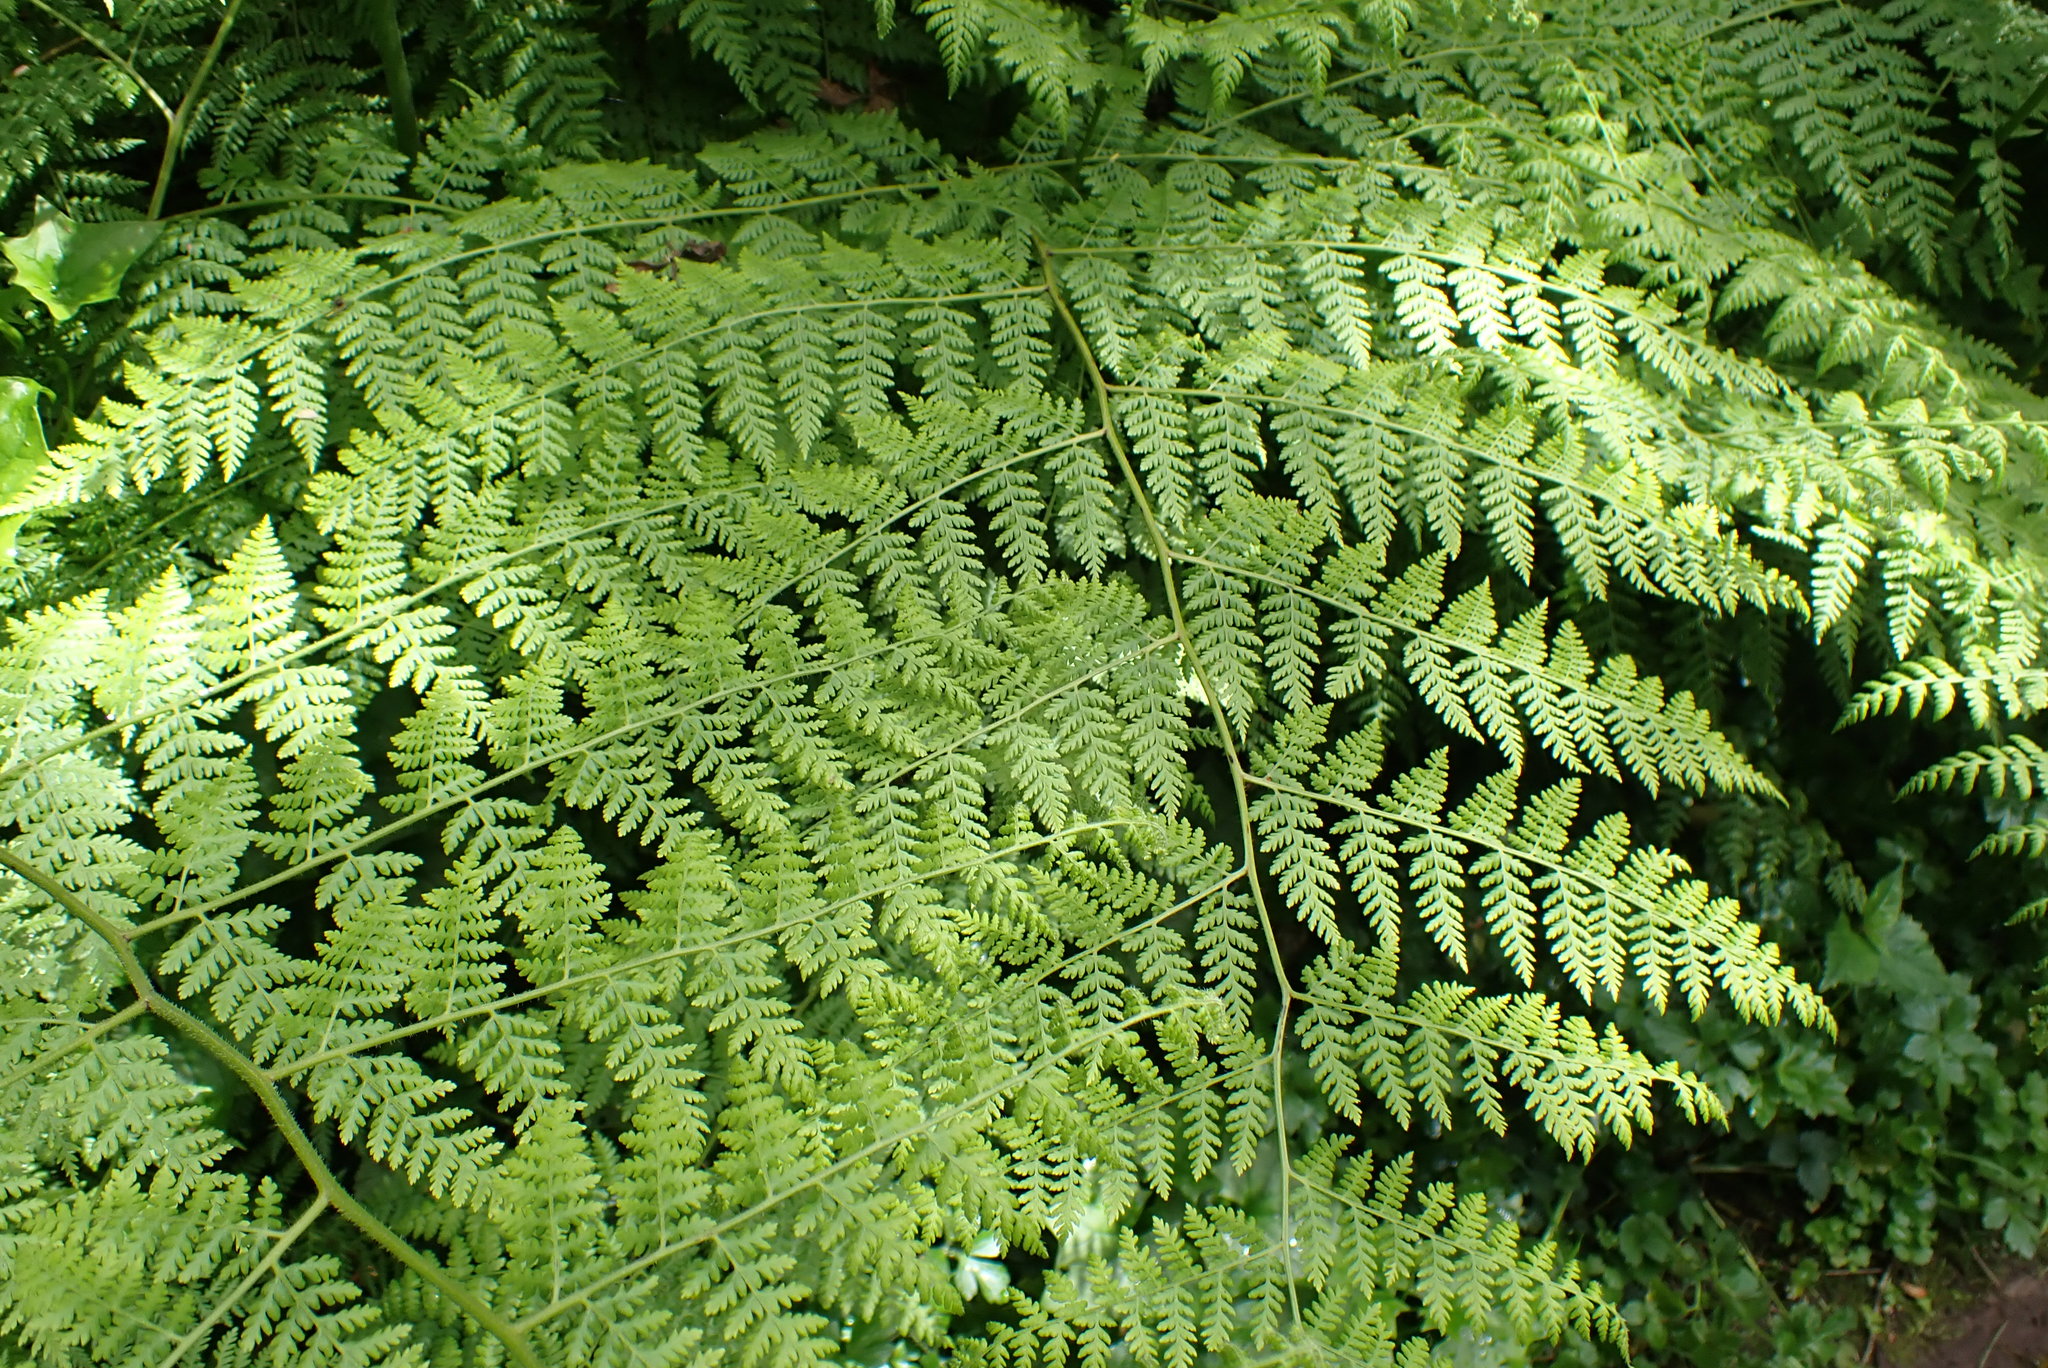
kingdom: Plantae
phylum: Tracheophyta
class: Polypodiopsida
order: Polypodiales
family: Dennstaedtiaceae
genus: Hypolepis
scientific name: Hypolepis sparsisora
